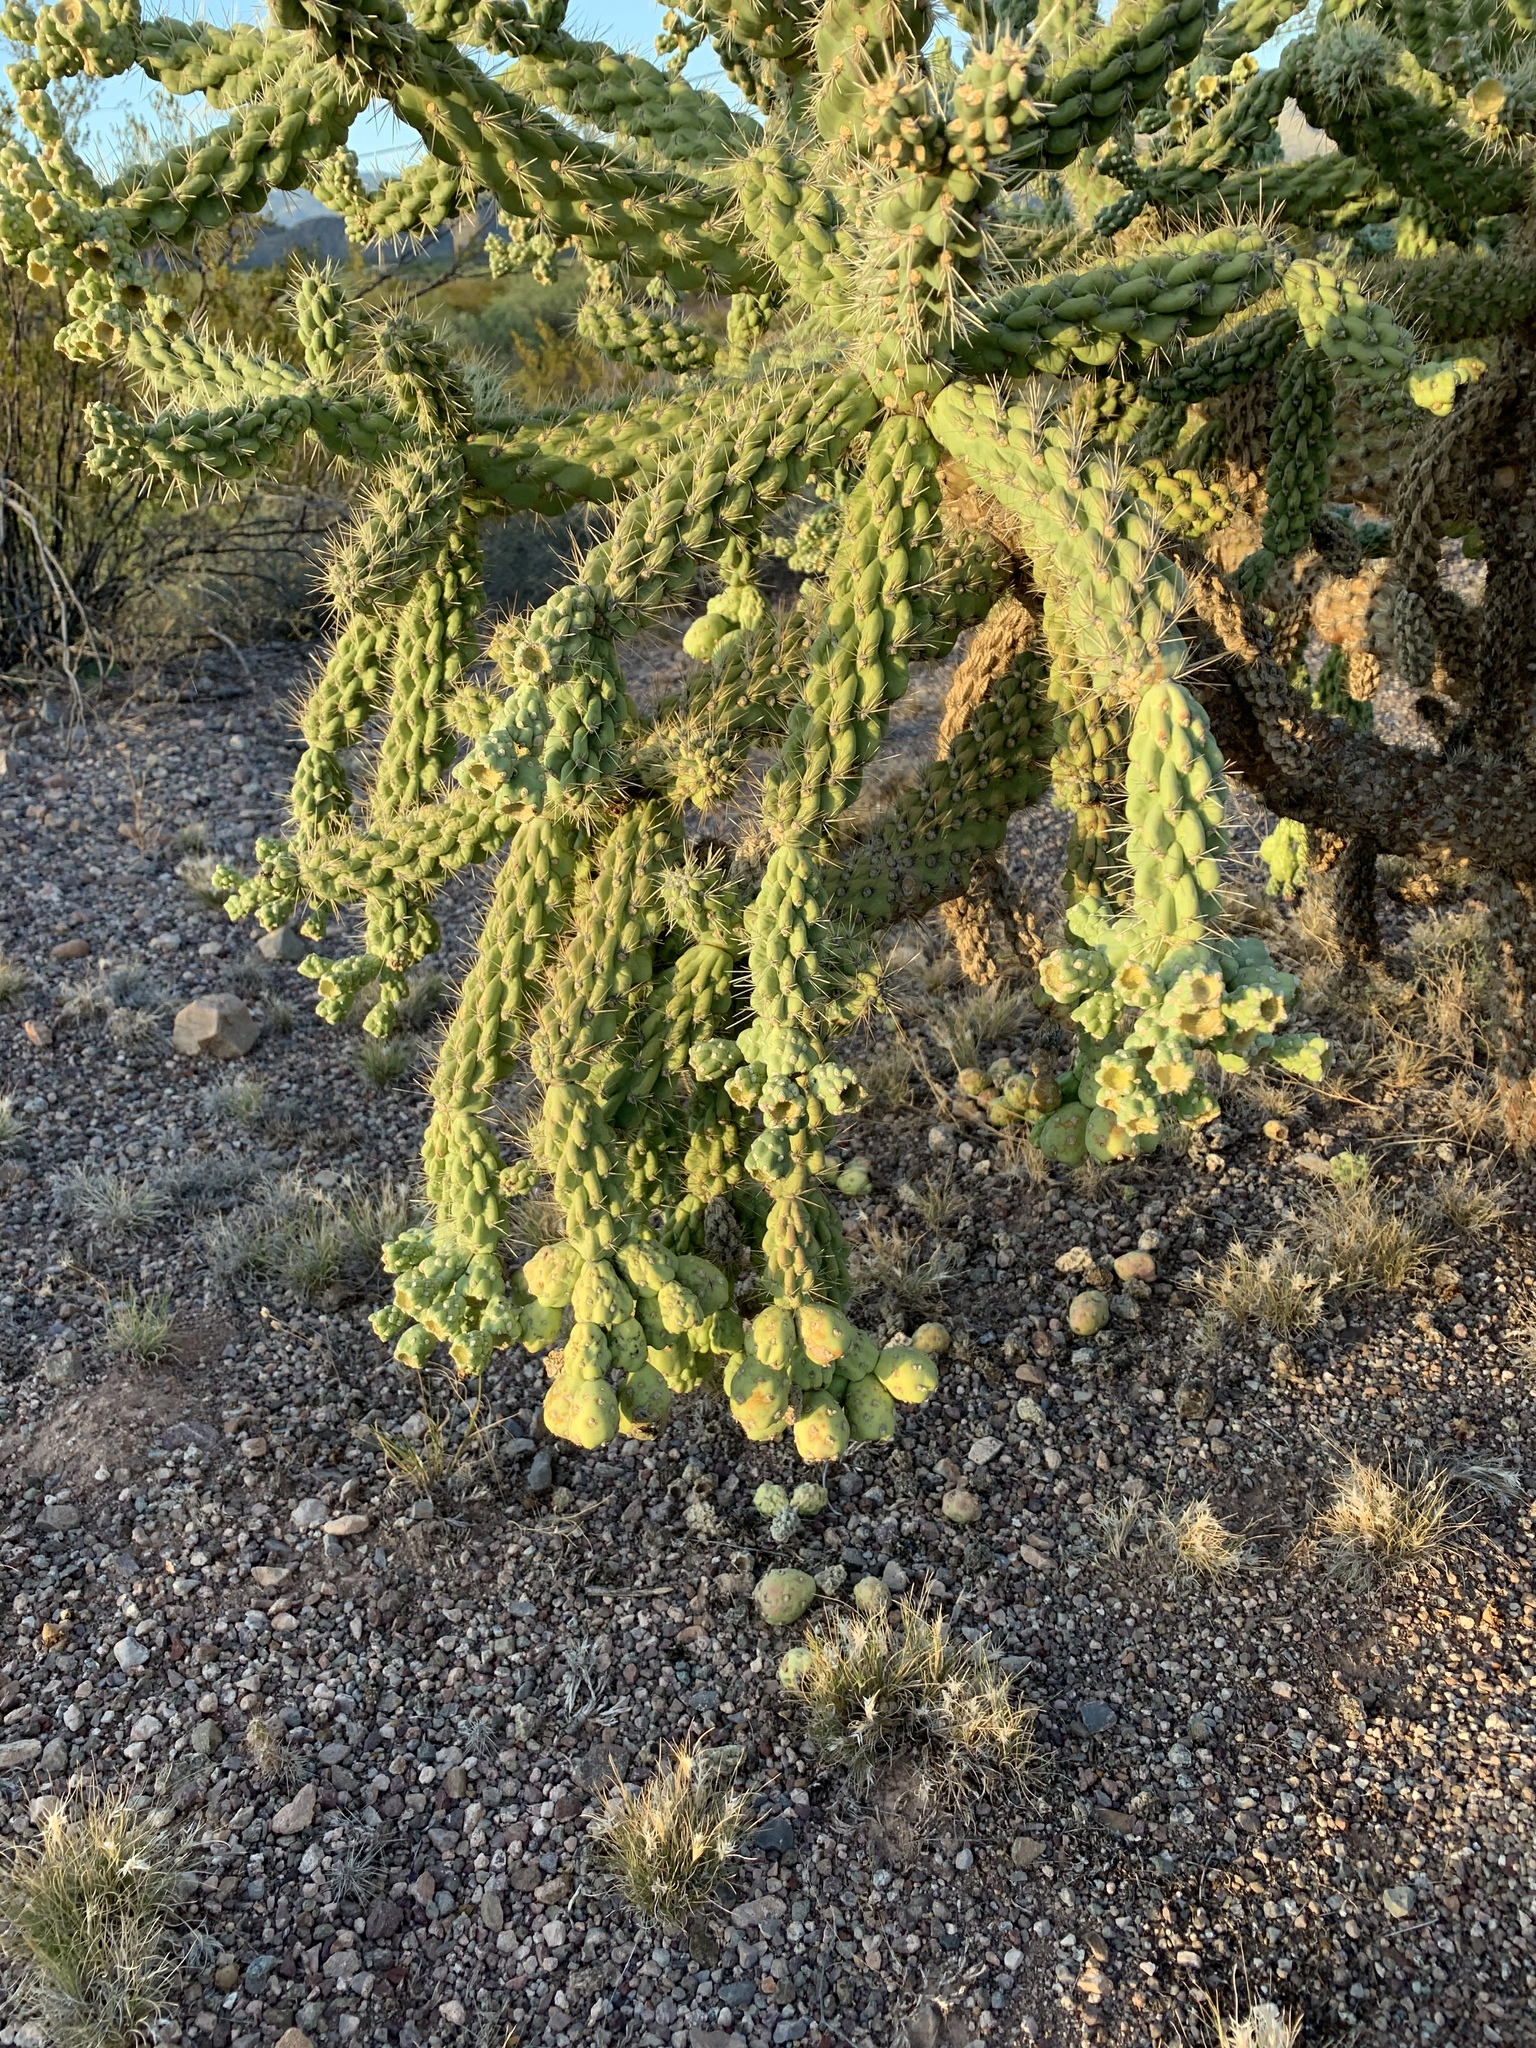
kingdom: Plantae
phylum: Tracheophyta
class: Magnoliopsida
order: Caryophyllales
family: Cactaceae
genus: Cylindropuntia
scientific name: Cylindropuntia fulgida
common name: Jumping cholla
